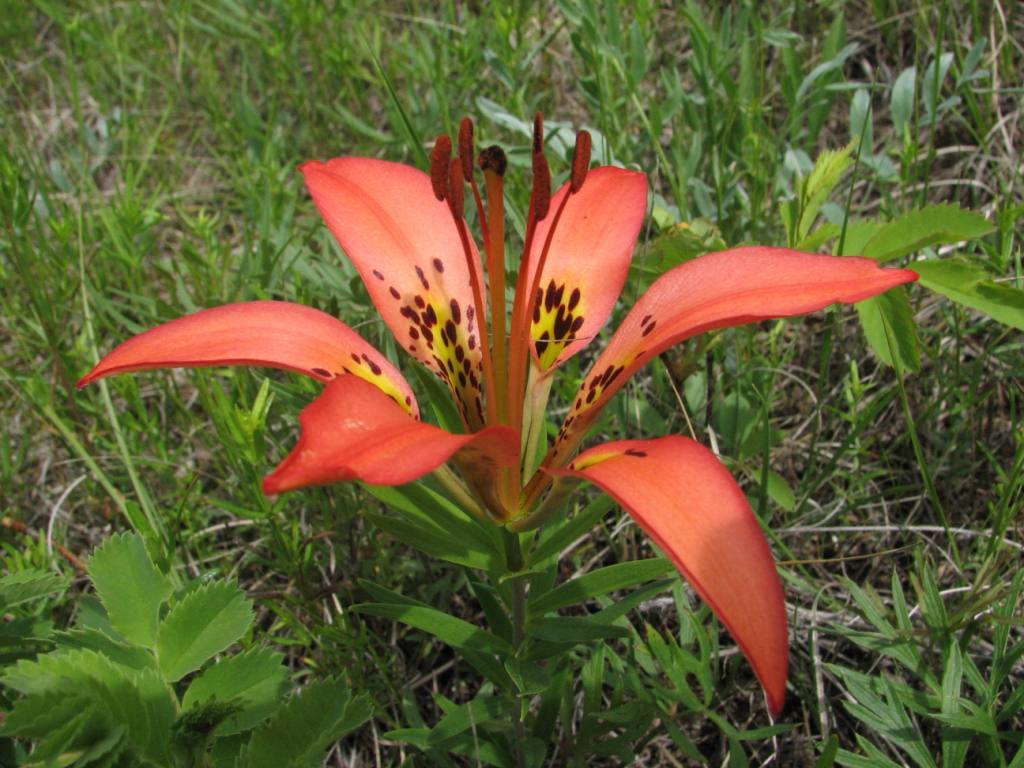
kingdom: Plantae
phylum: Tracheophyta
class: Liliopsida
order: Liliales
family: Liliaceae
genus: Lilium
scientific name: Lilium philadelphicum
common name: Red lily
